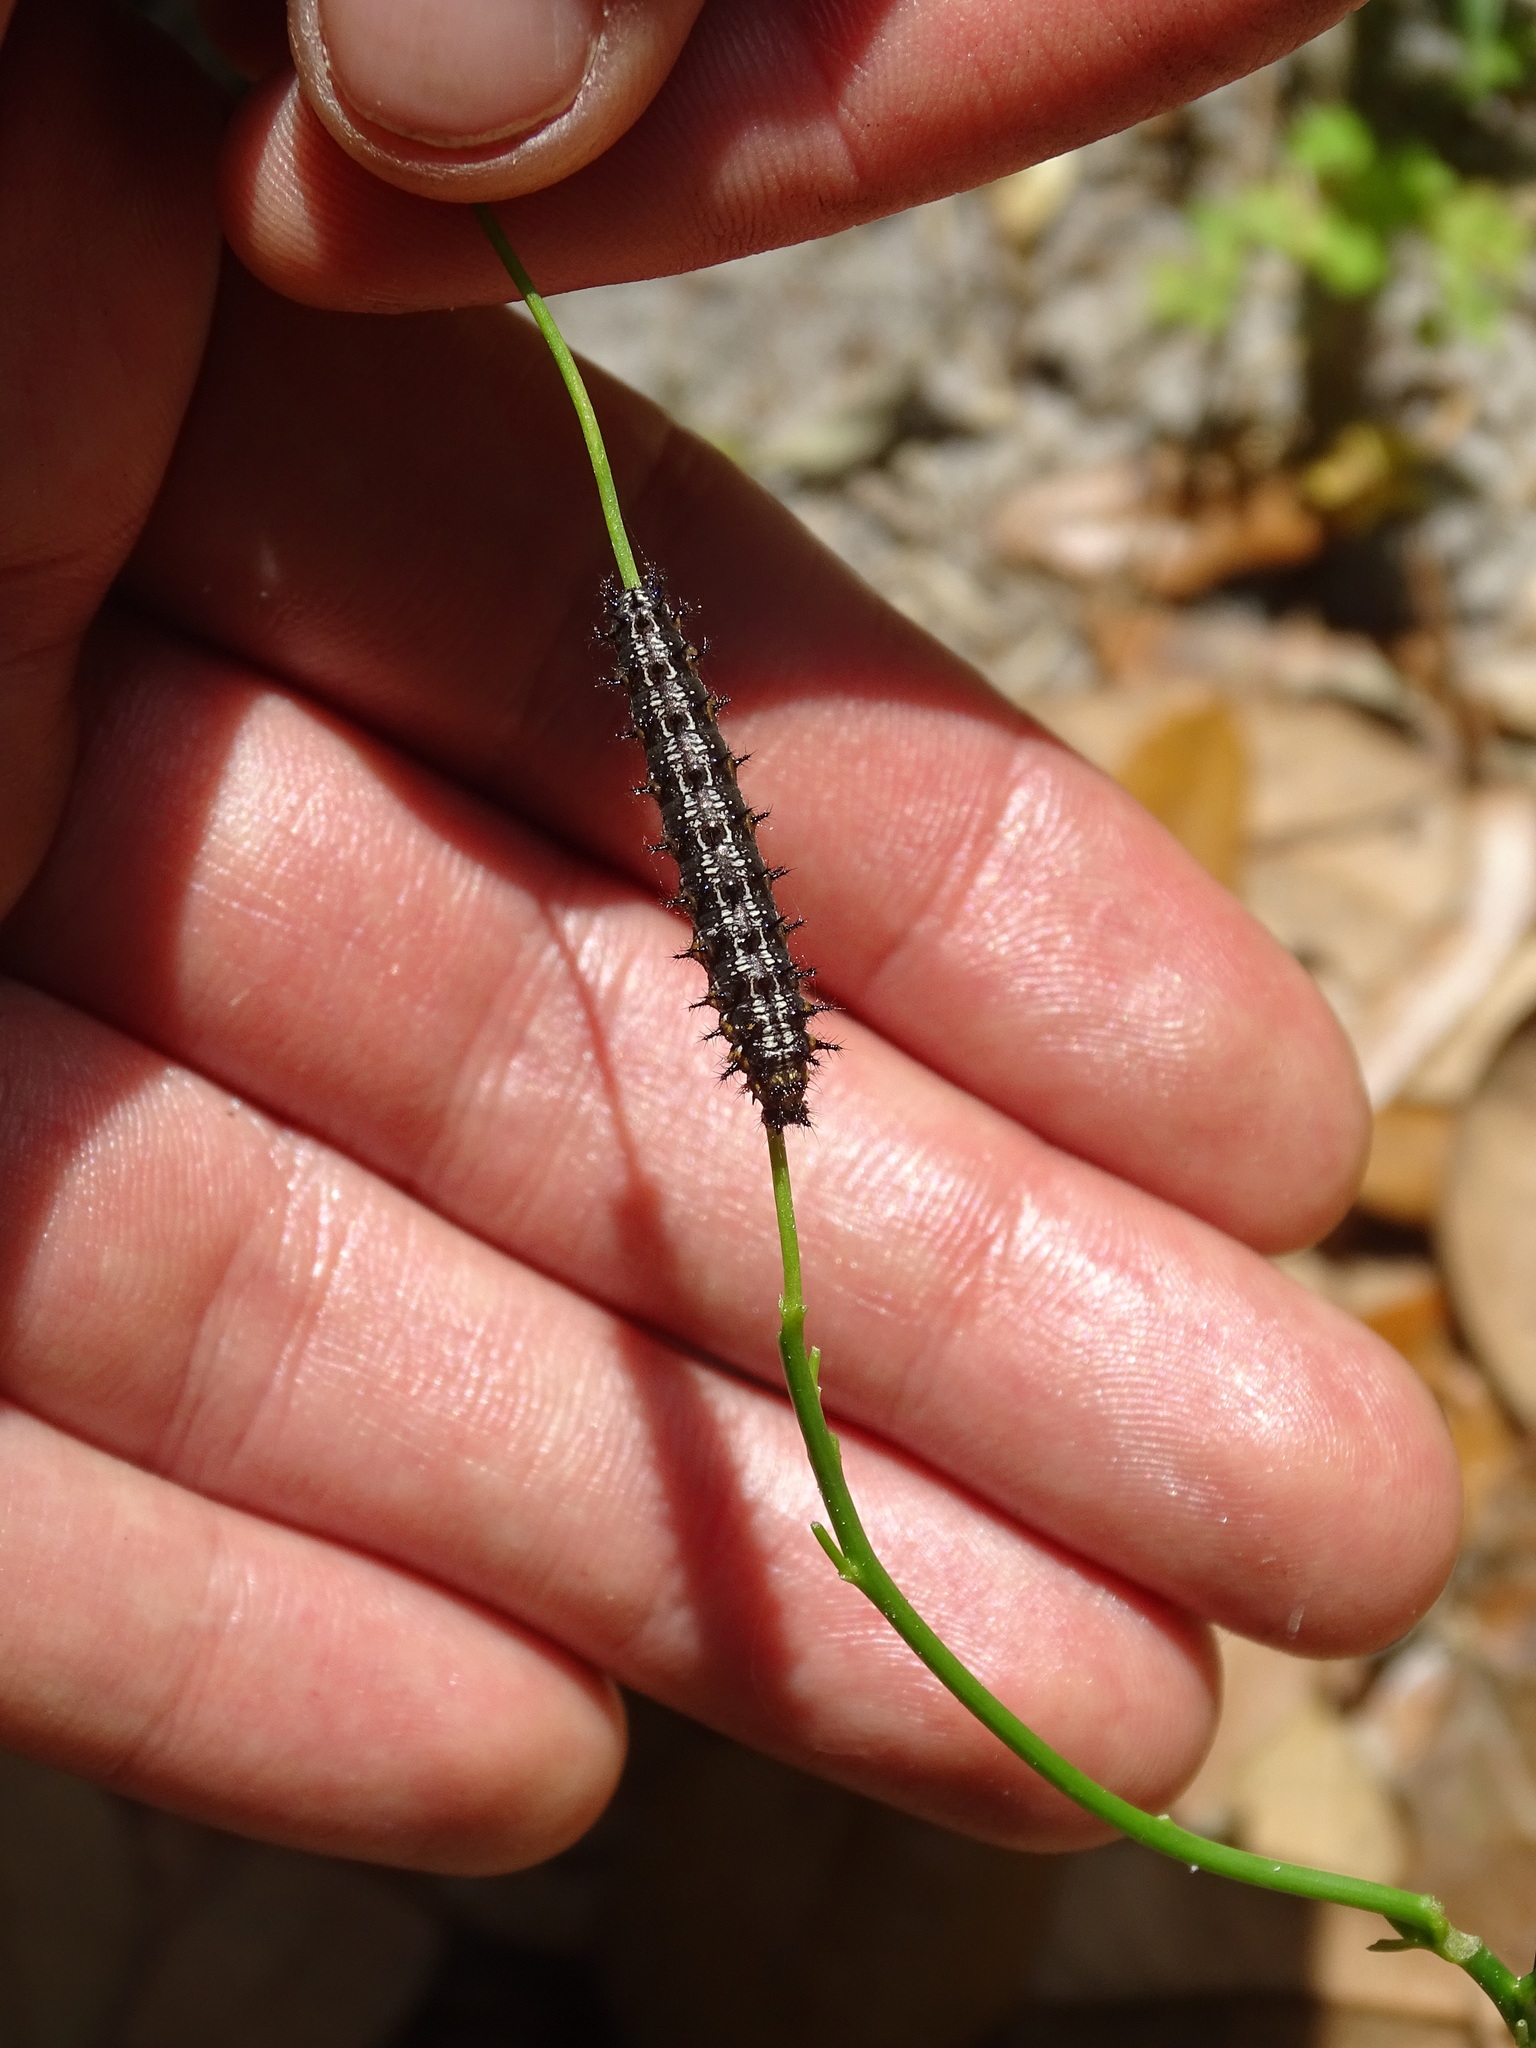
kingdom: Animalia
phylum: Arthropoda
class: Insecta
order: Lepidoptera
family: Nymphalidae
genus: Junonia
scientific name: Junonia coenia
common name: Common buckeye
